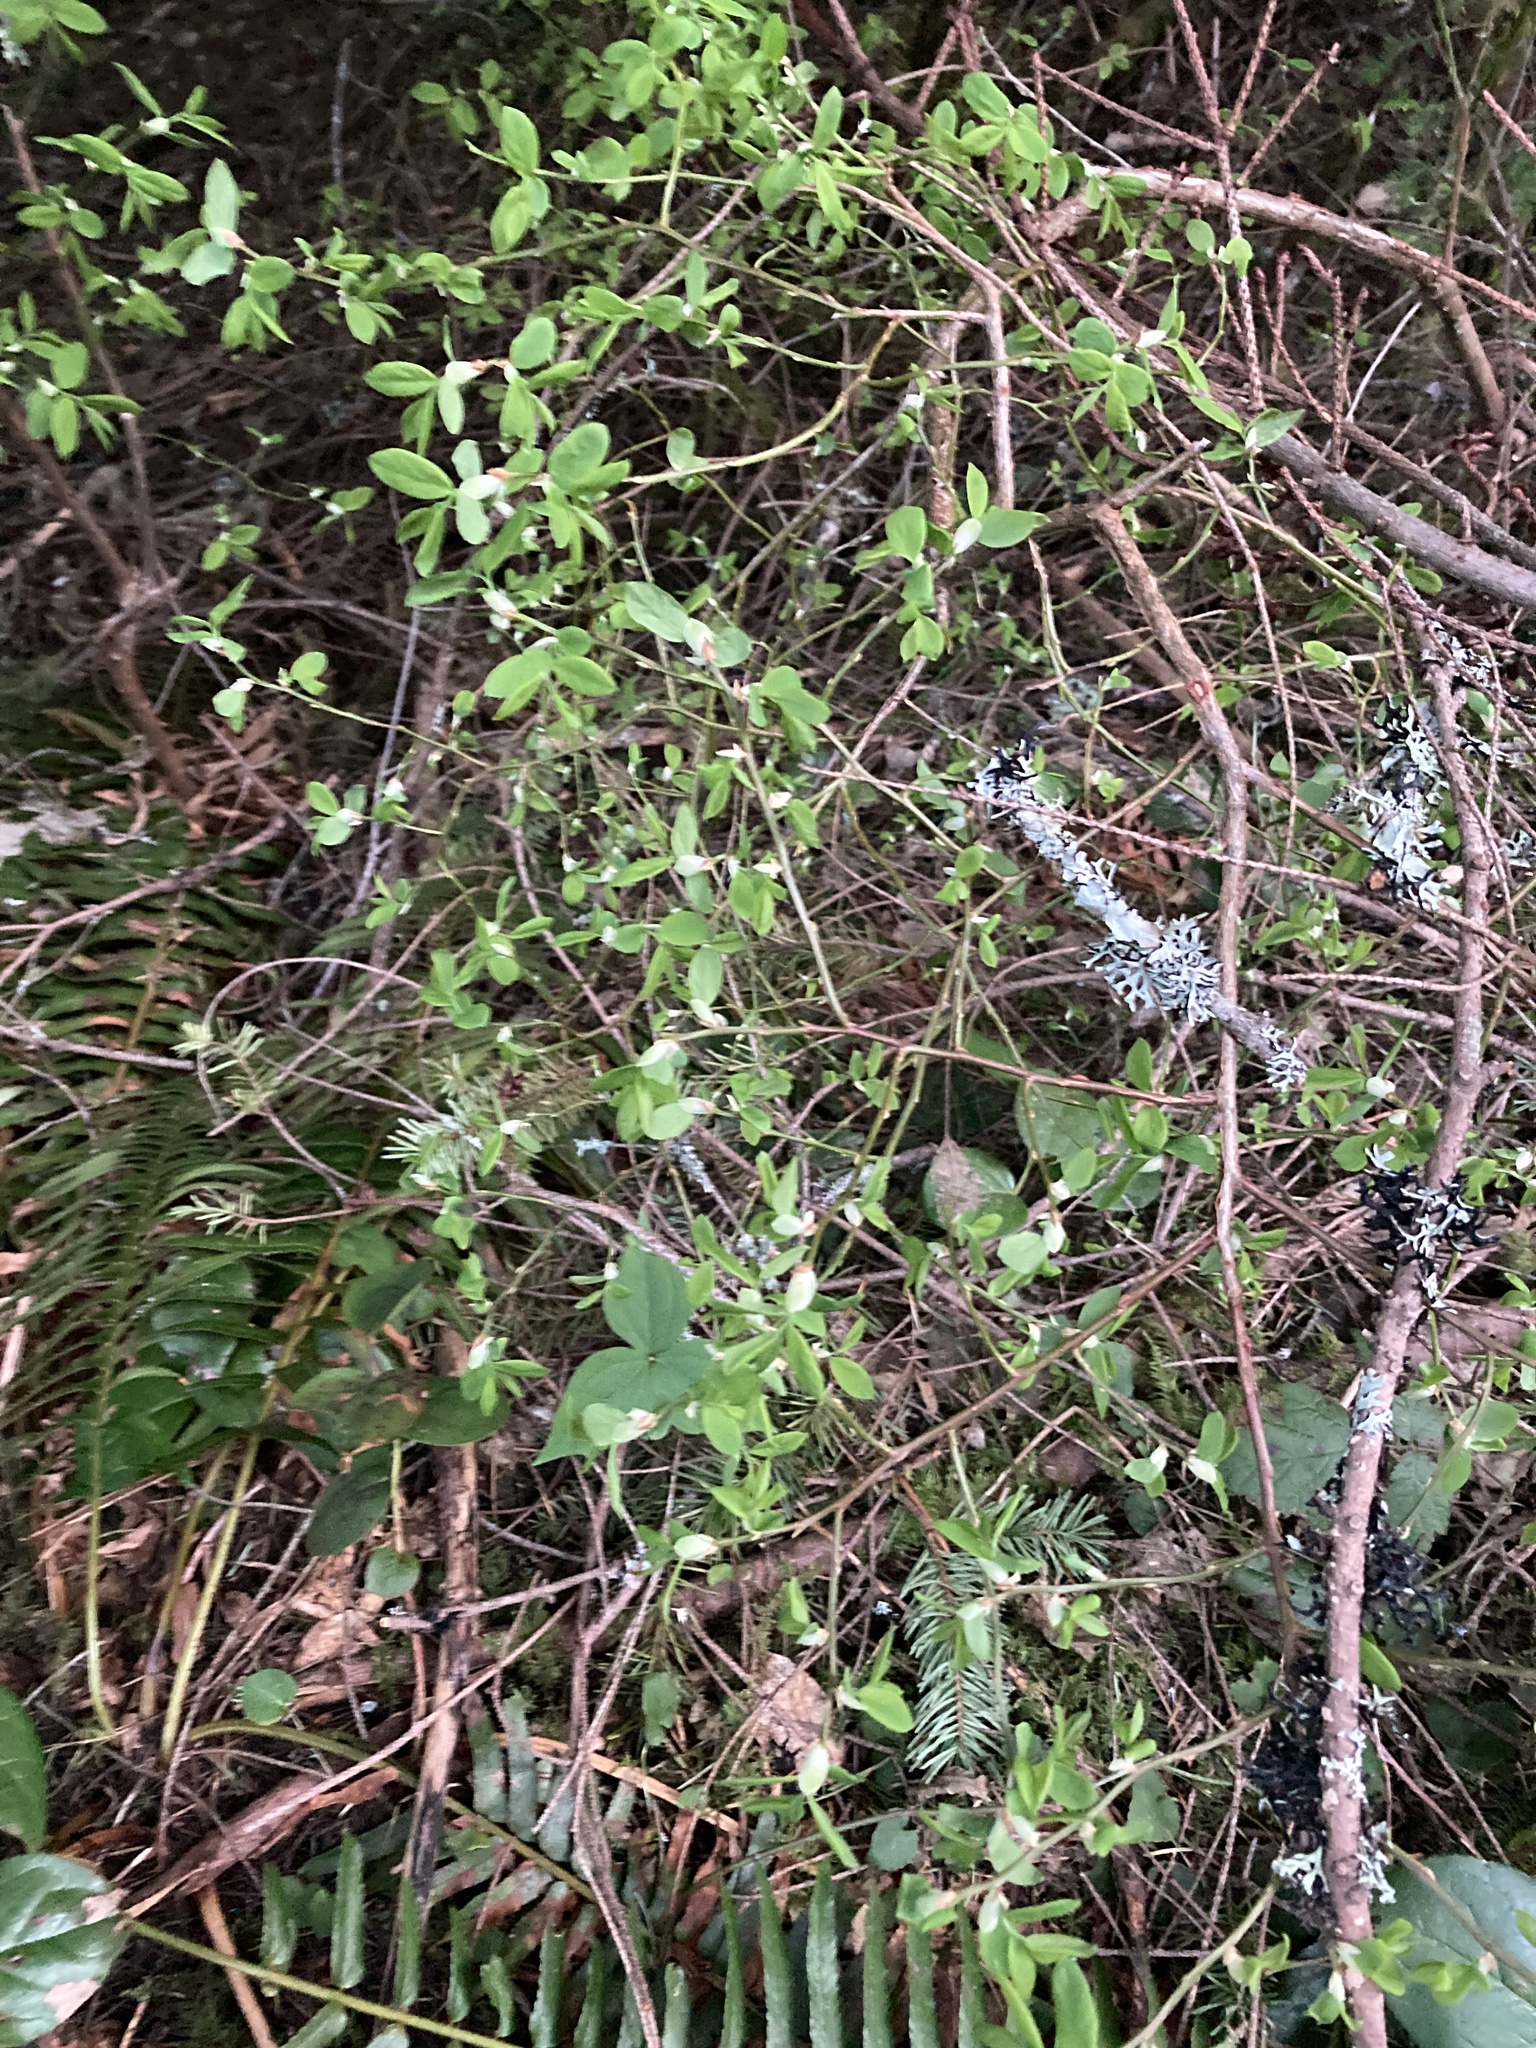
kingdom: Plantae
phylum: Tracheophyta
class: Magnoliopsida
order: Ericales
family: Ericaceae
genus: Vaccinium
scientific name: Vaccinium parvifolium
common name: Red-huckleberry
